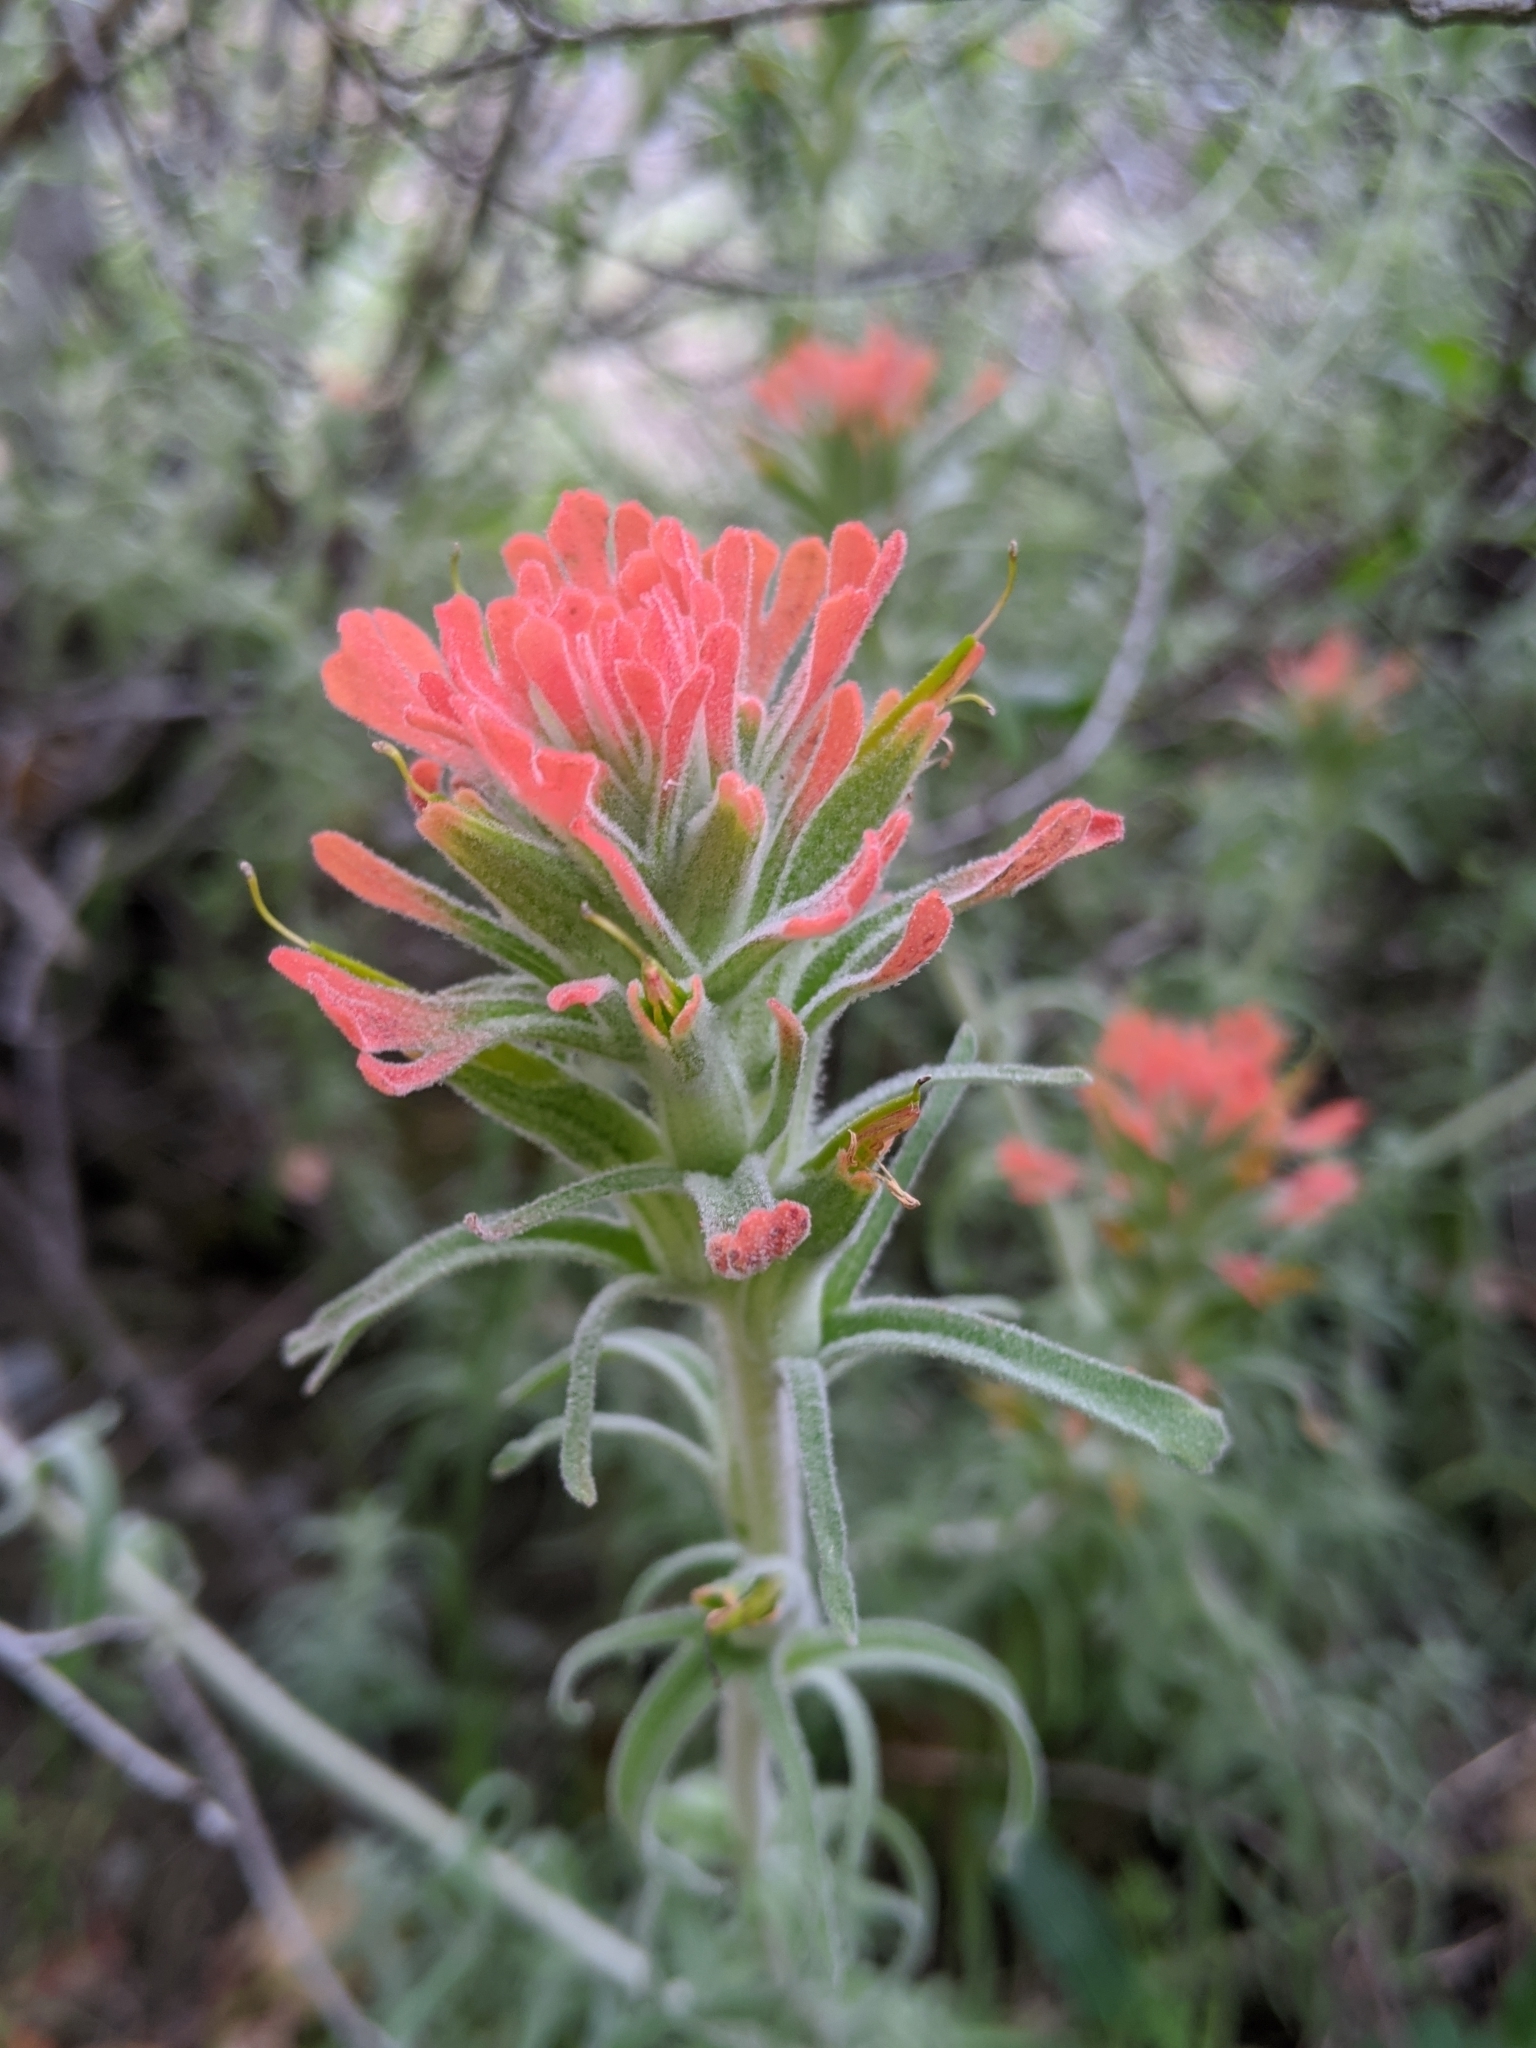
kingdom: Plantae
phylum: Tracheophyta
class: Magnoliopsida
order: Lamiales
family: Orobanchaceae
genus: Castilleja
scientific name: Castilleja foliolosa
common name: Woolly indian paintbrush
